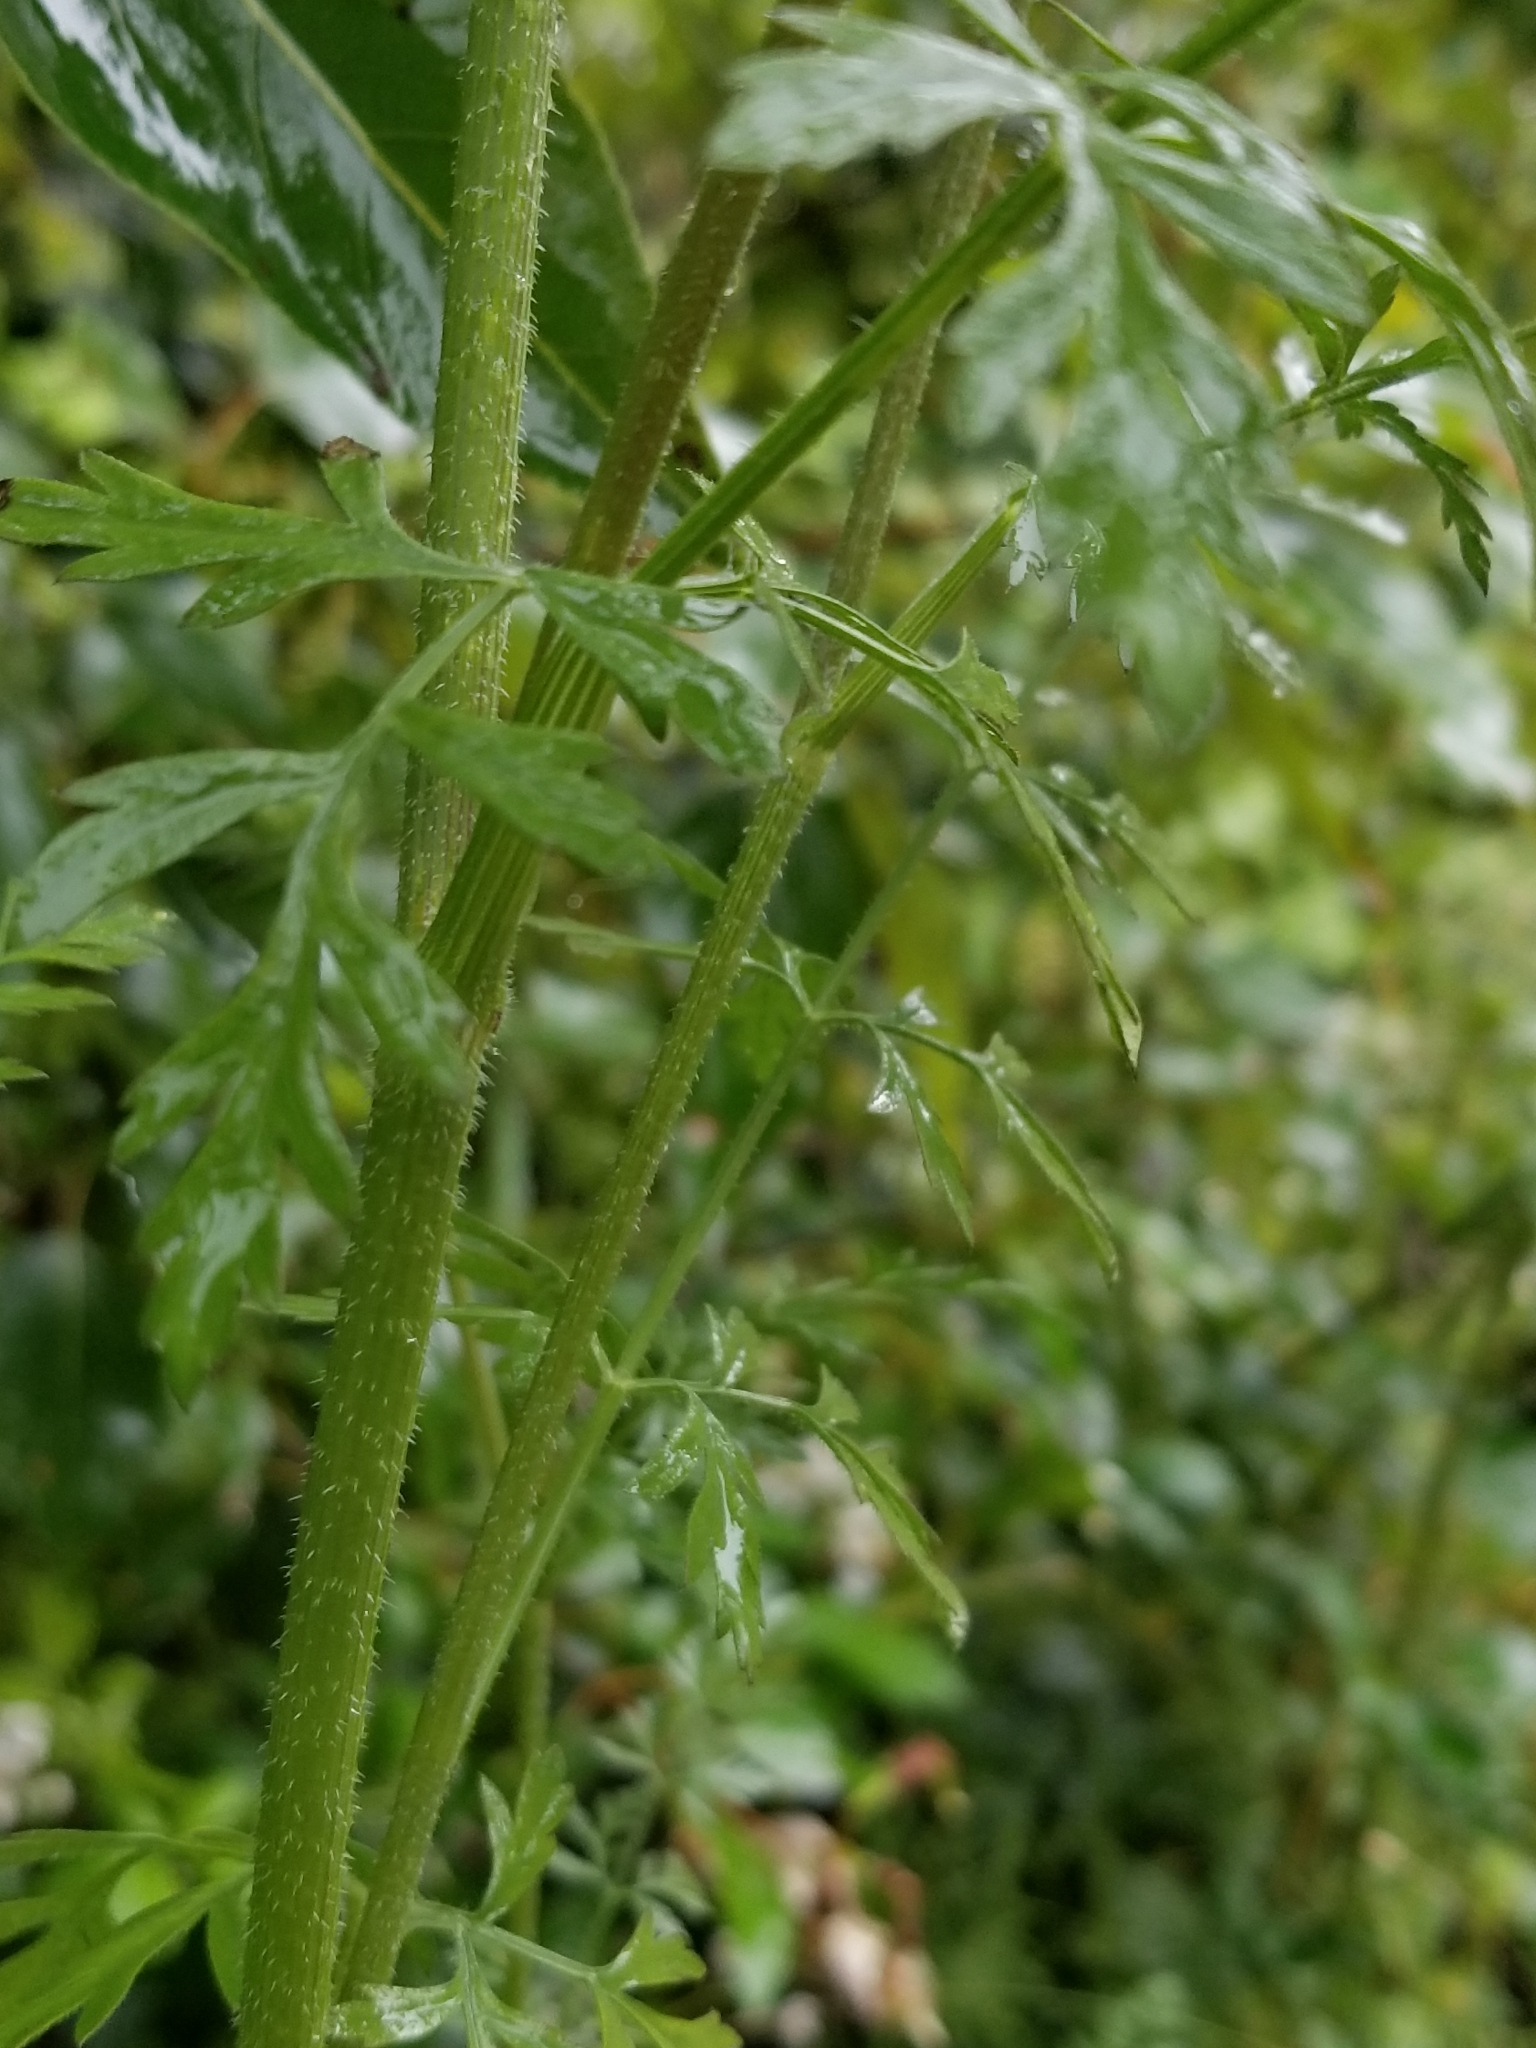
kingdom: Plantae
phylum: Tracheophyta
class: Magnoliopsida
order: Apiales
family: Apiaceae
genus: Daucus
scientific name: Daucus carota
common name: Wild carrot
